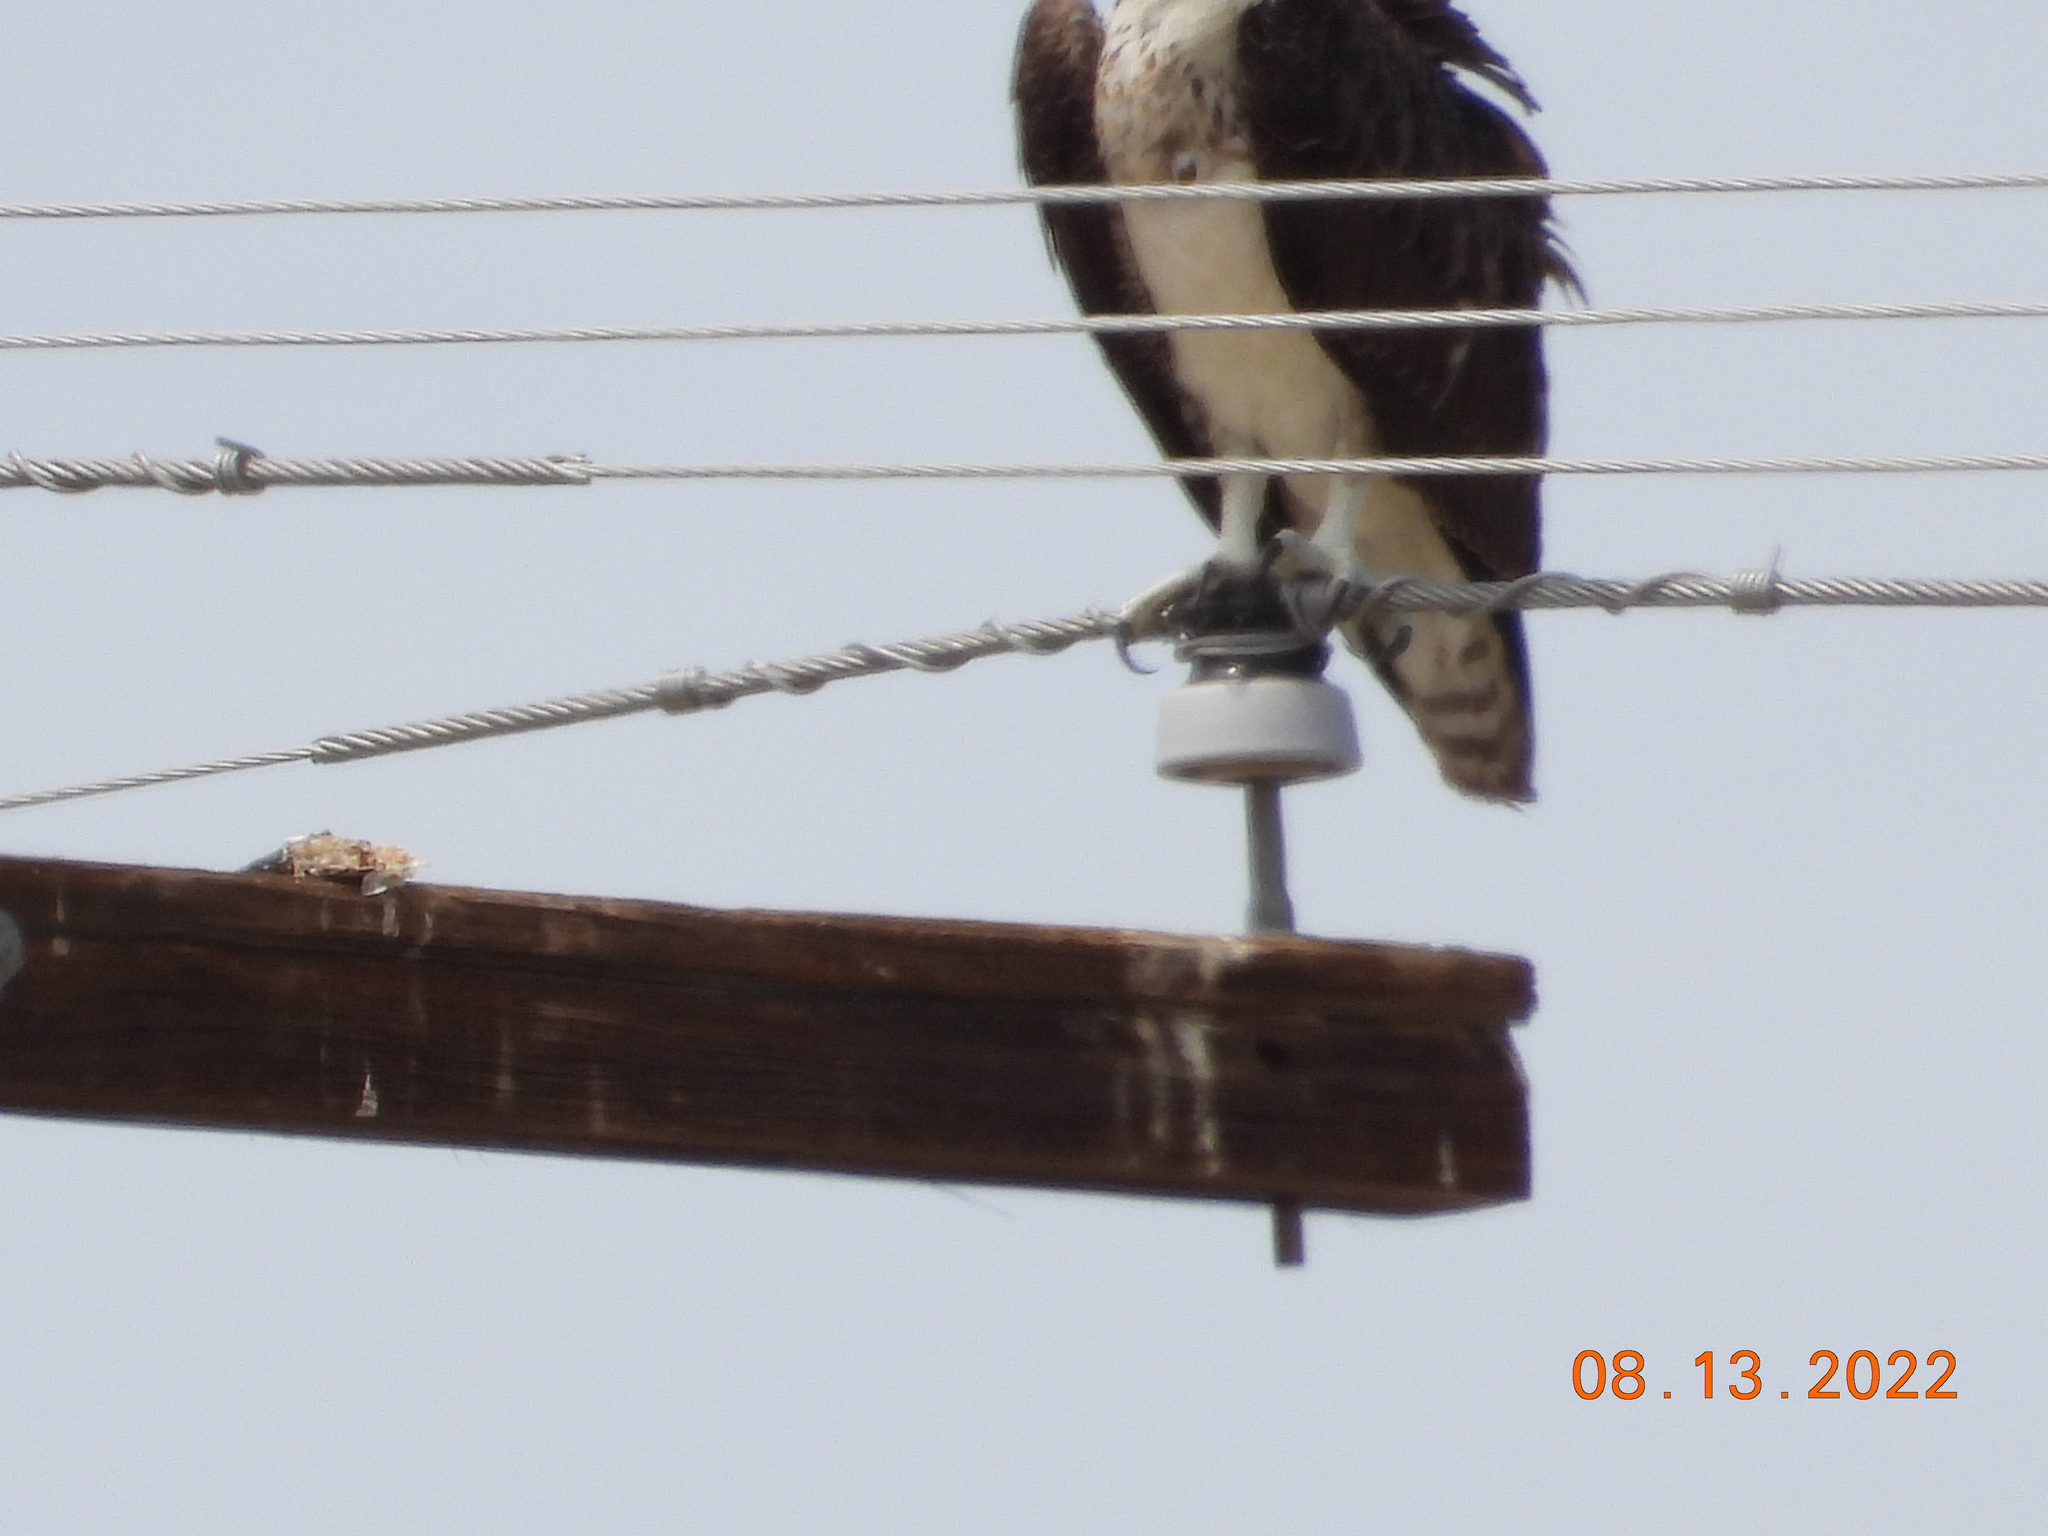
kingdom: Animalia
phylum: Chordata
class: Aves
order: Accipitriformes
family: Pandionidae
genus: Pandion
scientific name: Pandion haliaetus
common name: Osprey
